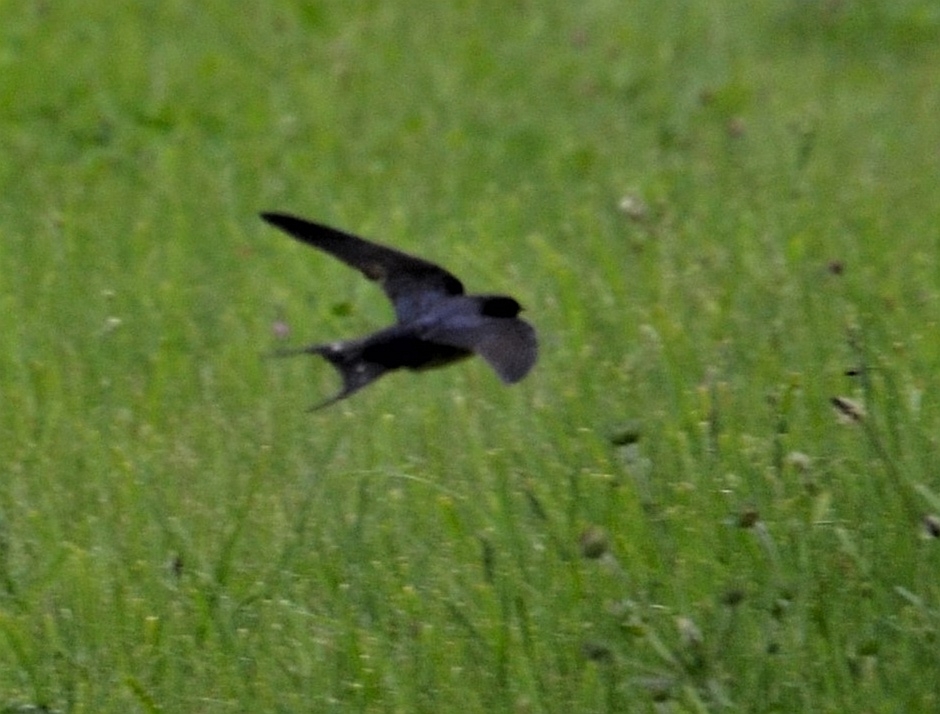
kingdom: Animalia
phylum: Chordata
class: Aves
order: Passeriformes
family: Hirundinidae
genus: Hirundo
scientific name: Hirundo rustica
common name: Barn swallow
